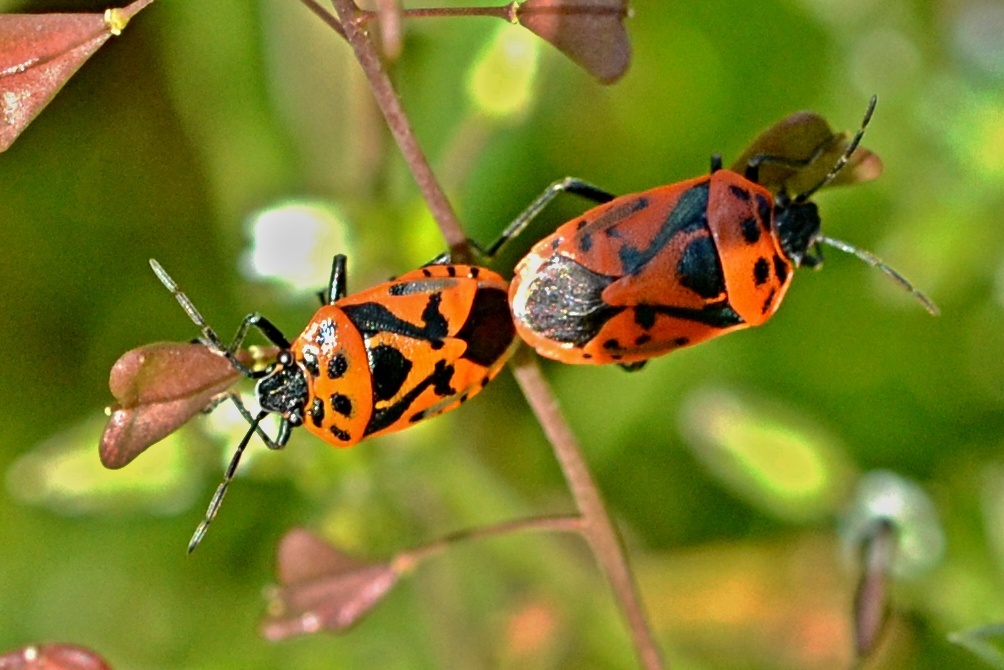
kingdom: Animalia
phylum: Arthropoda
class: Insecta
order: Hemiptera
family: Pentatomidae
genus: Eurydema
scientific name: Eurydema ornata
